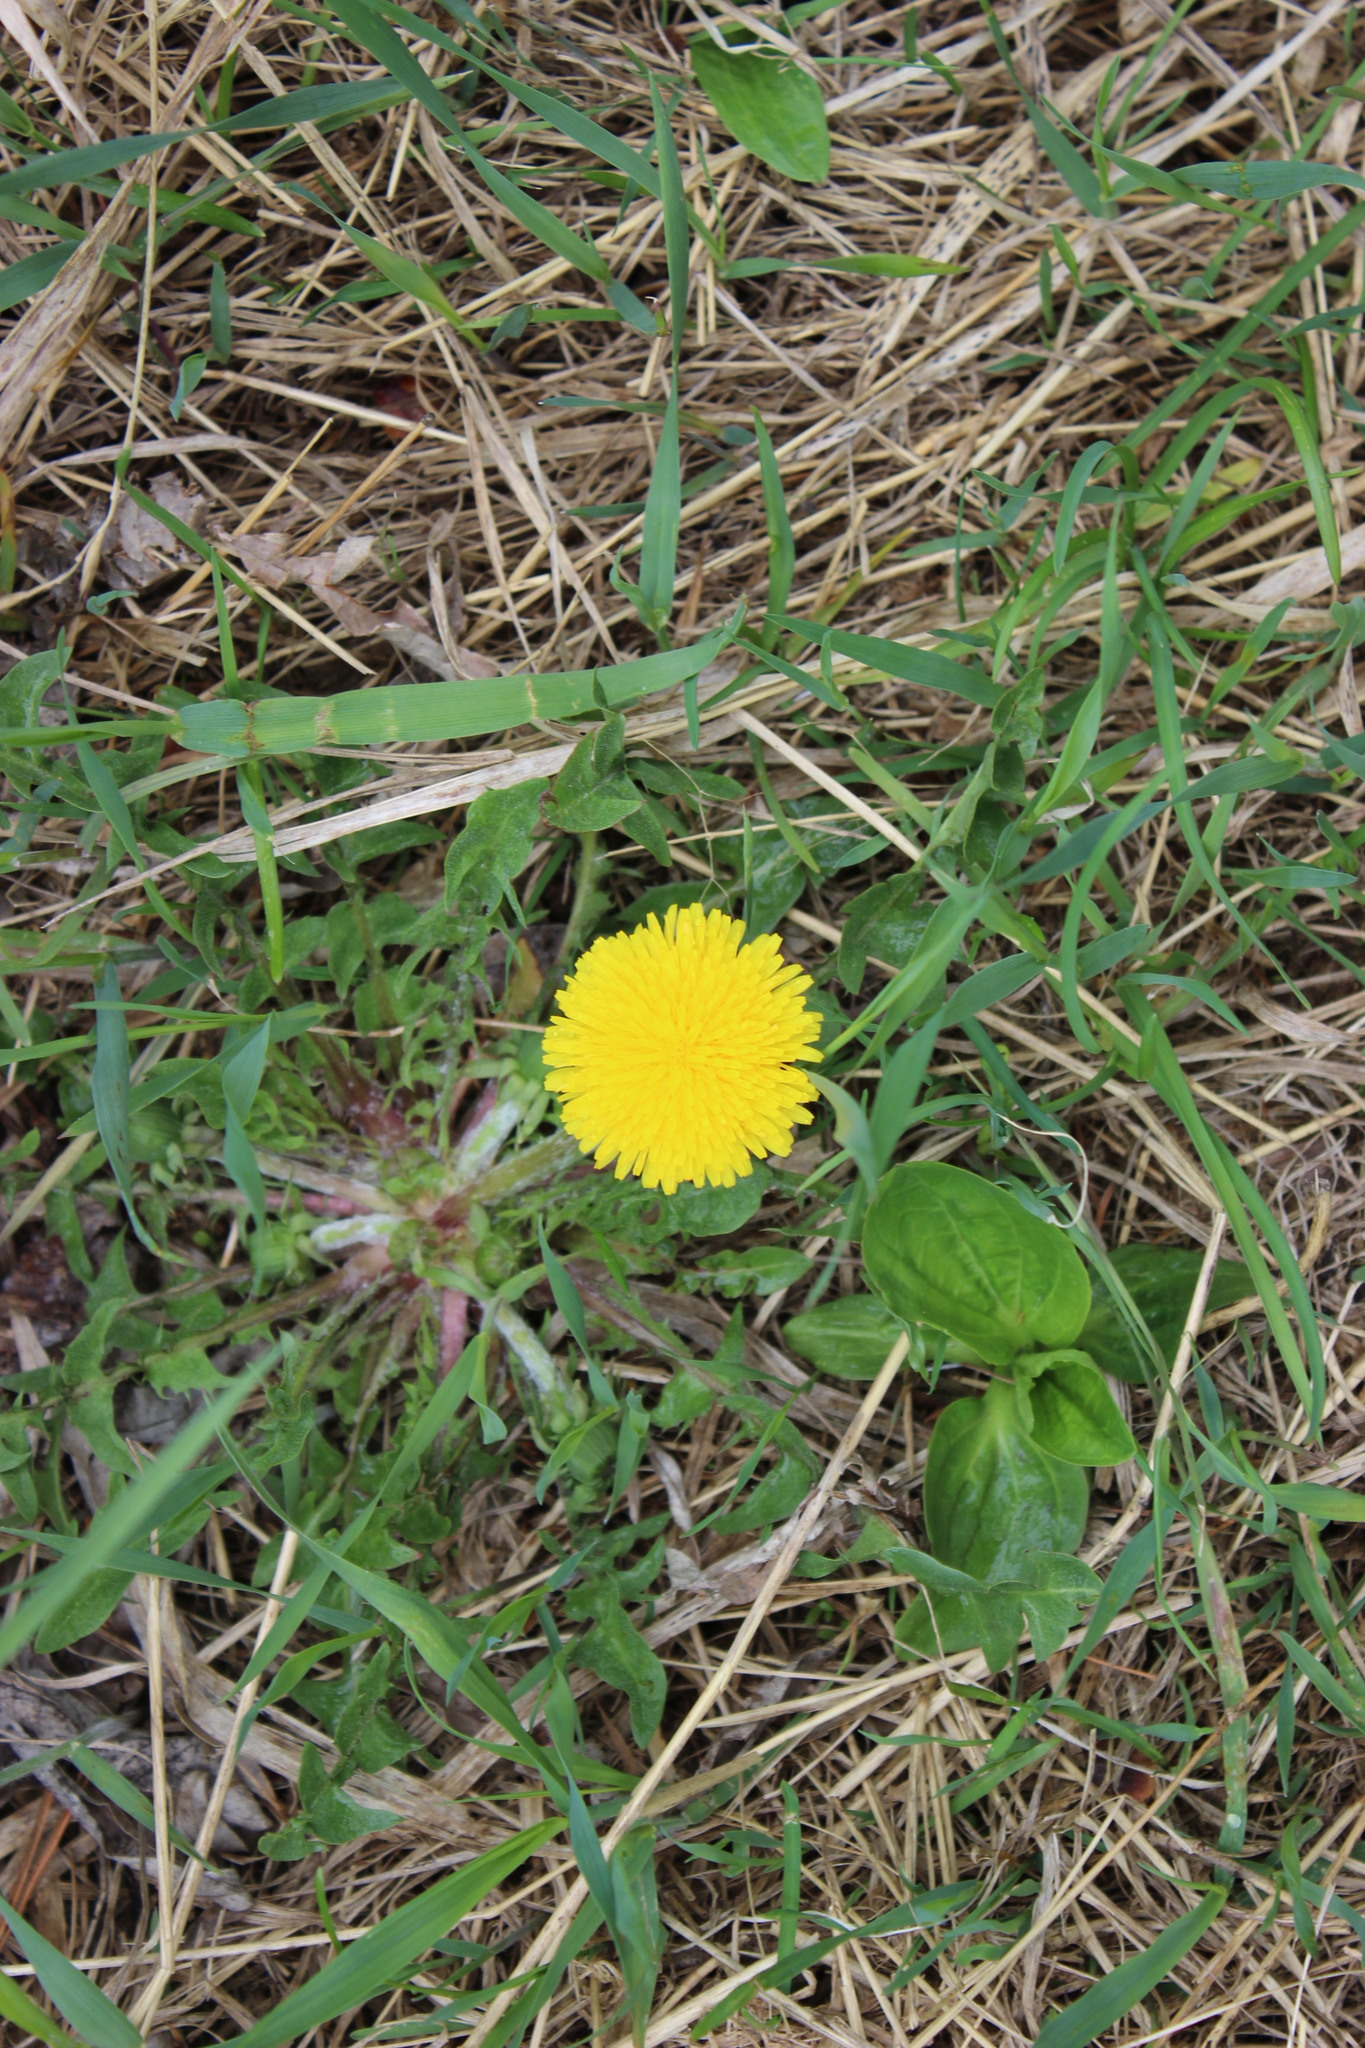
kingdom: Plantae
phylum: Tracheophyta
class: Magnoliopsida
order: Asterales
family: Asteraceae
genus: Taraxacum
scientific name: Taraxacum officinale
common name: Common dandelion
